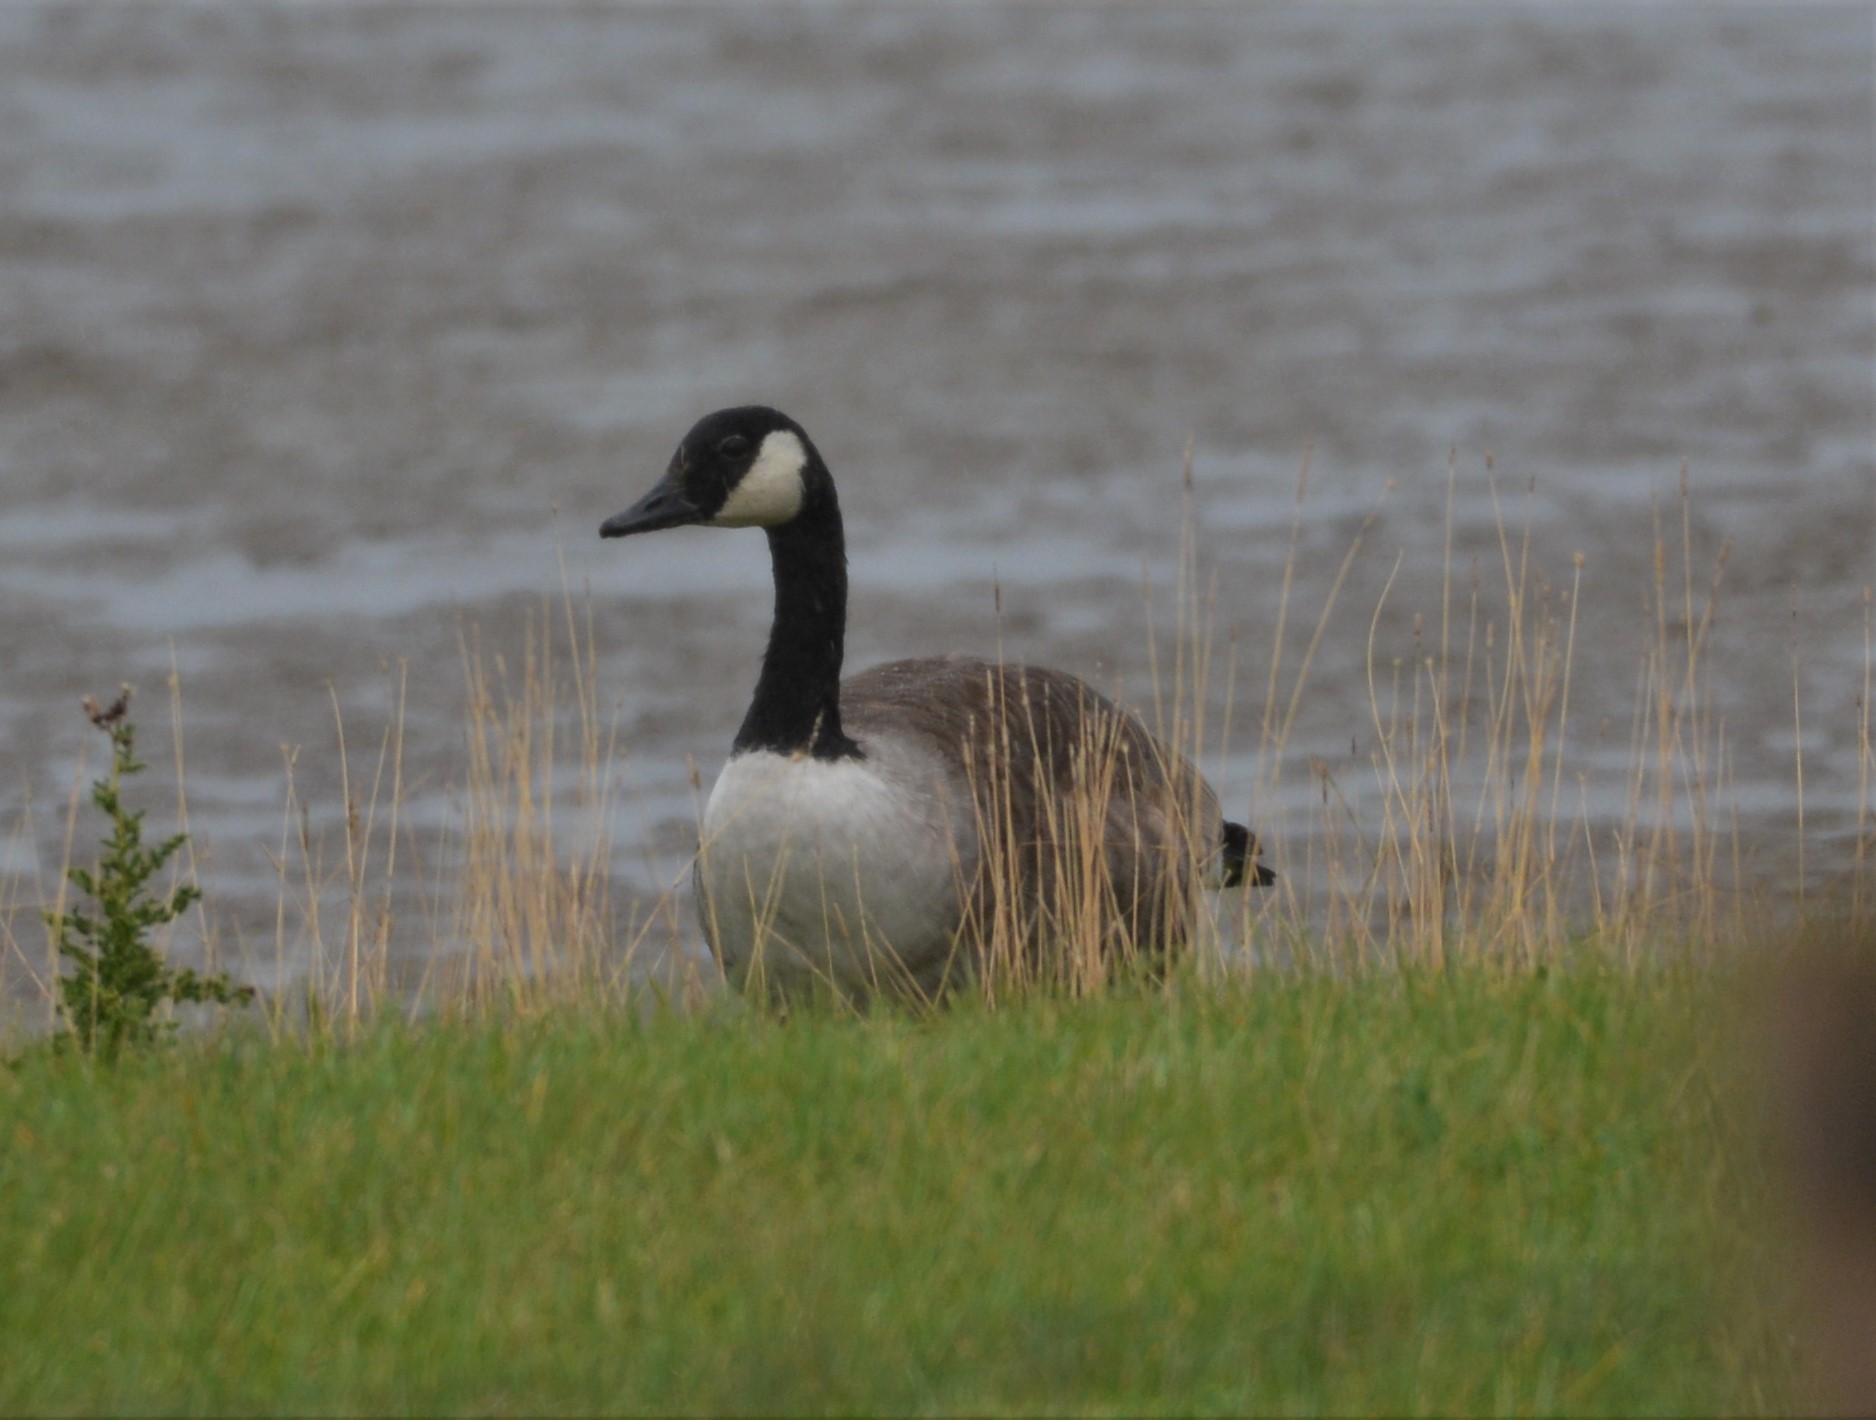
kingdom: Animalia
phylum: Chordata
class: Aves
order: Anseriformes
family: Anatidae
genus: Branta
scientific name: Branta canadensis
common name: Canada goose
